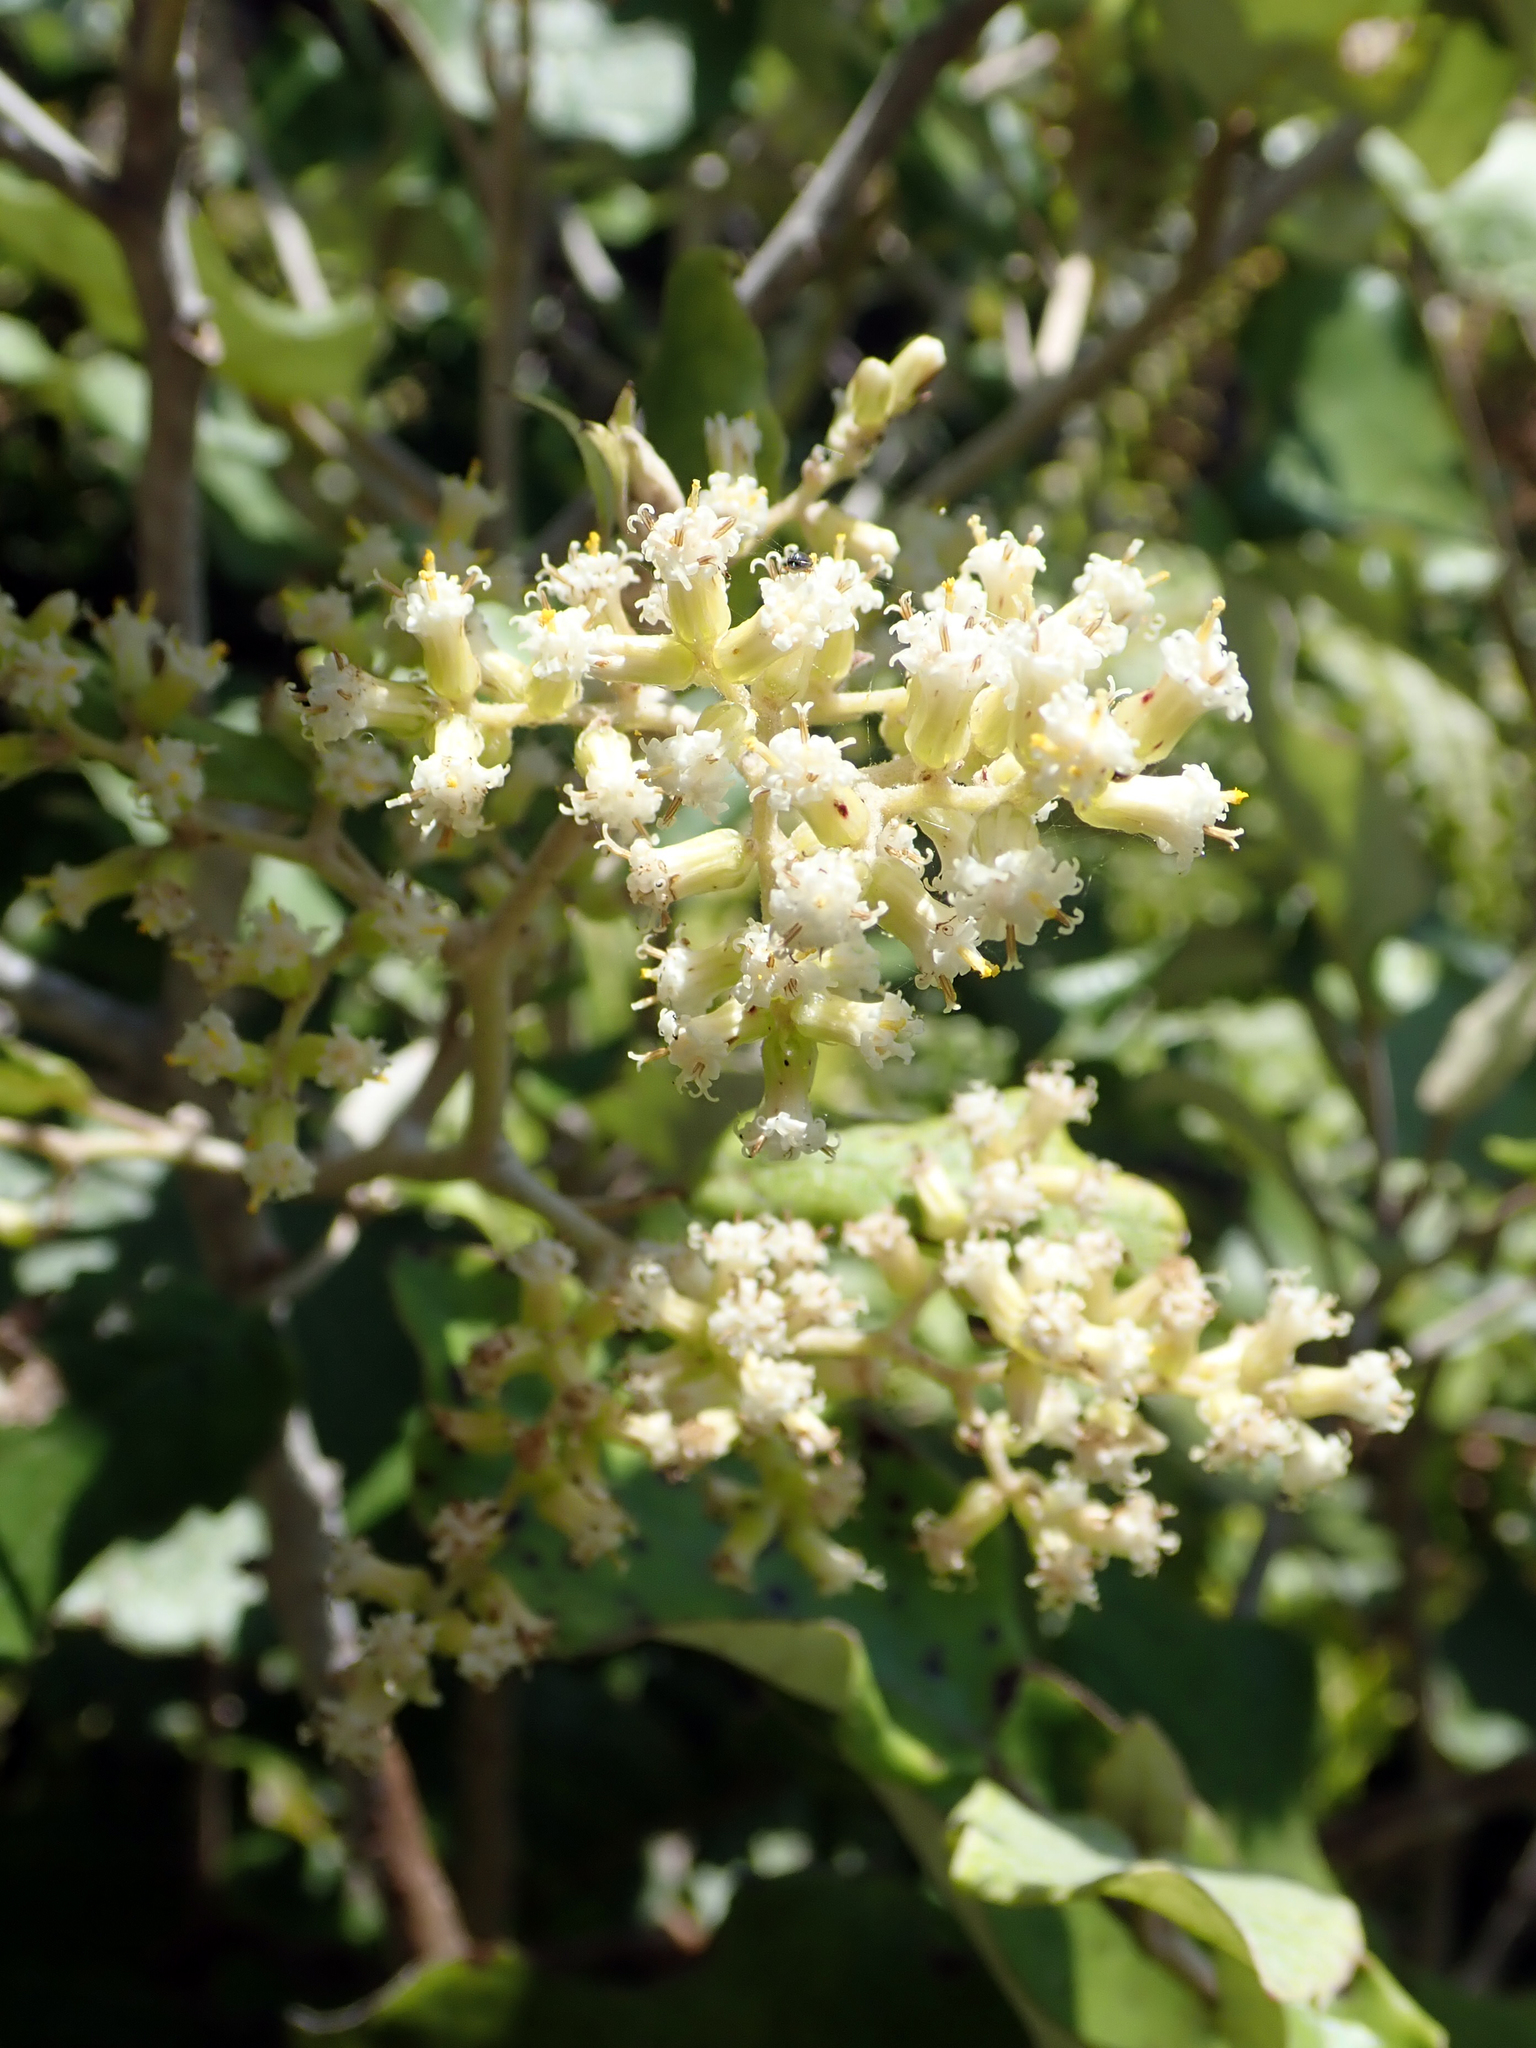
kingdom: Plantae
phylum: Tracheophyta
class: Magnoliopsida
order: Asterales
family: Asteraceae
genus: Brachyglottis
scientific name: Brachyglottis repanda
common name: Hedge ragwort
